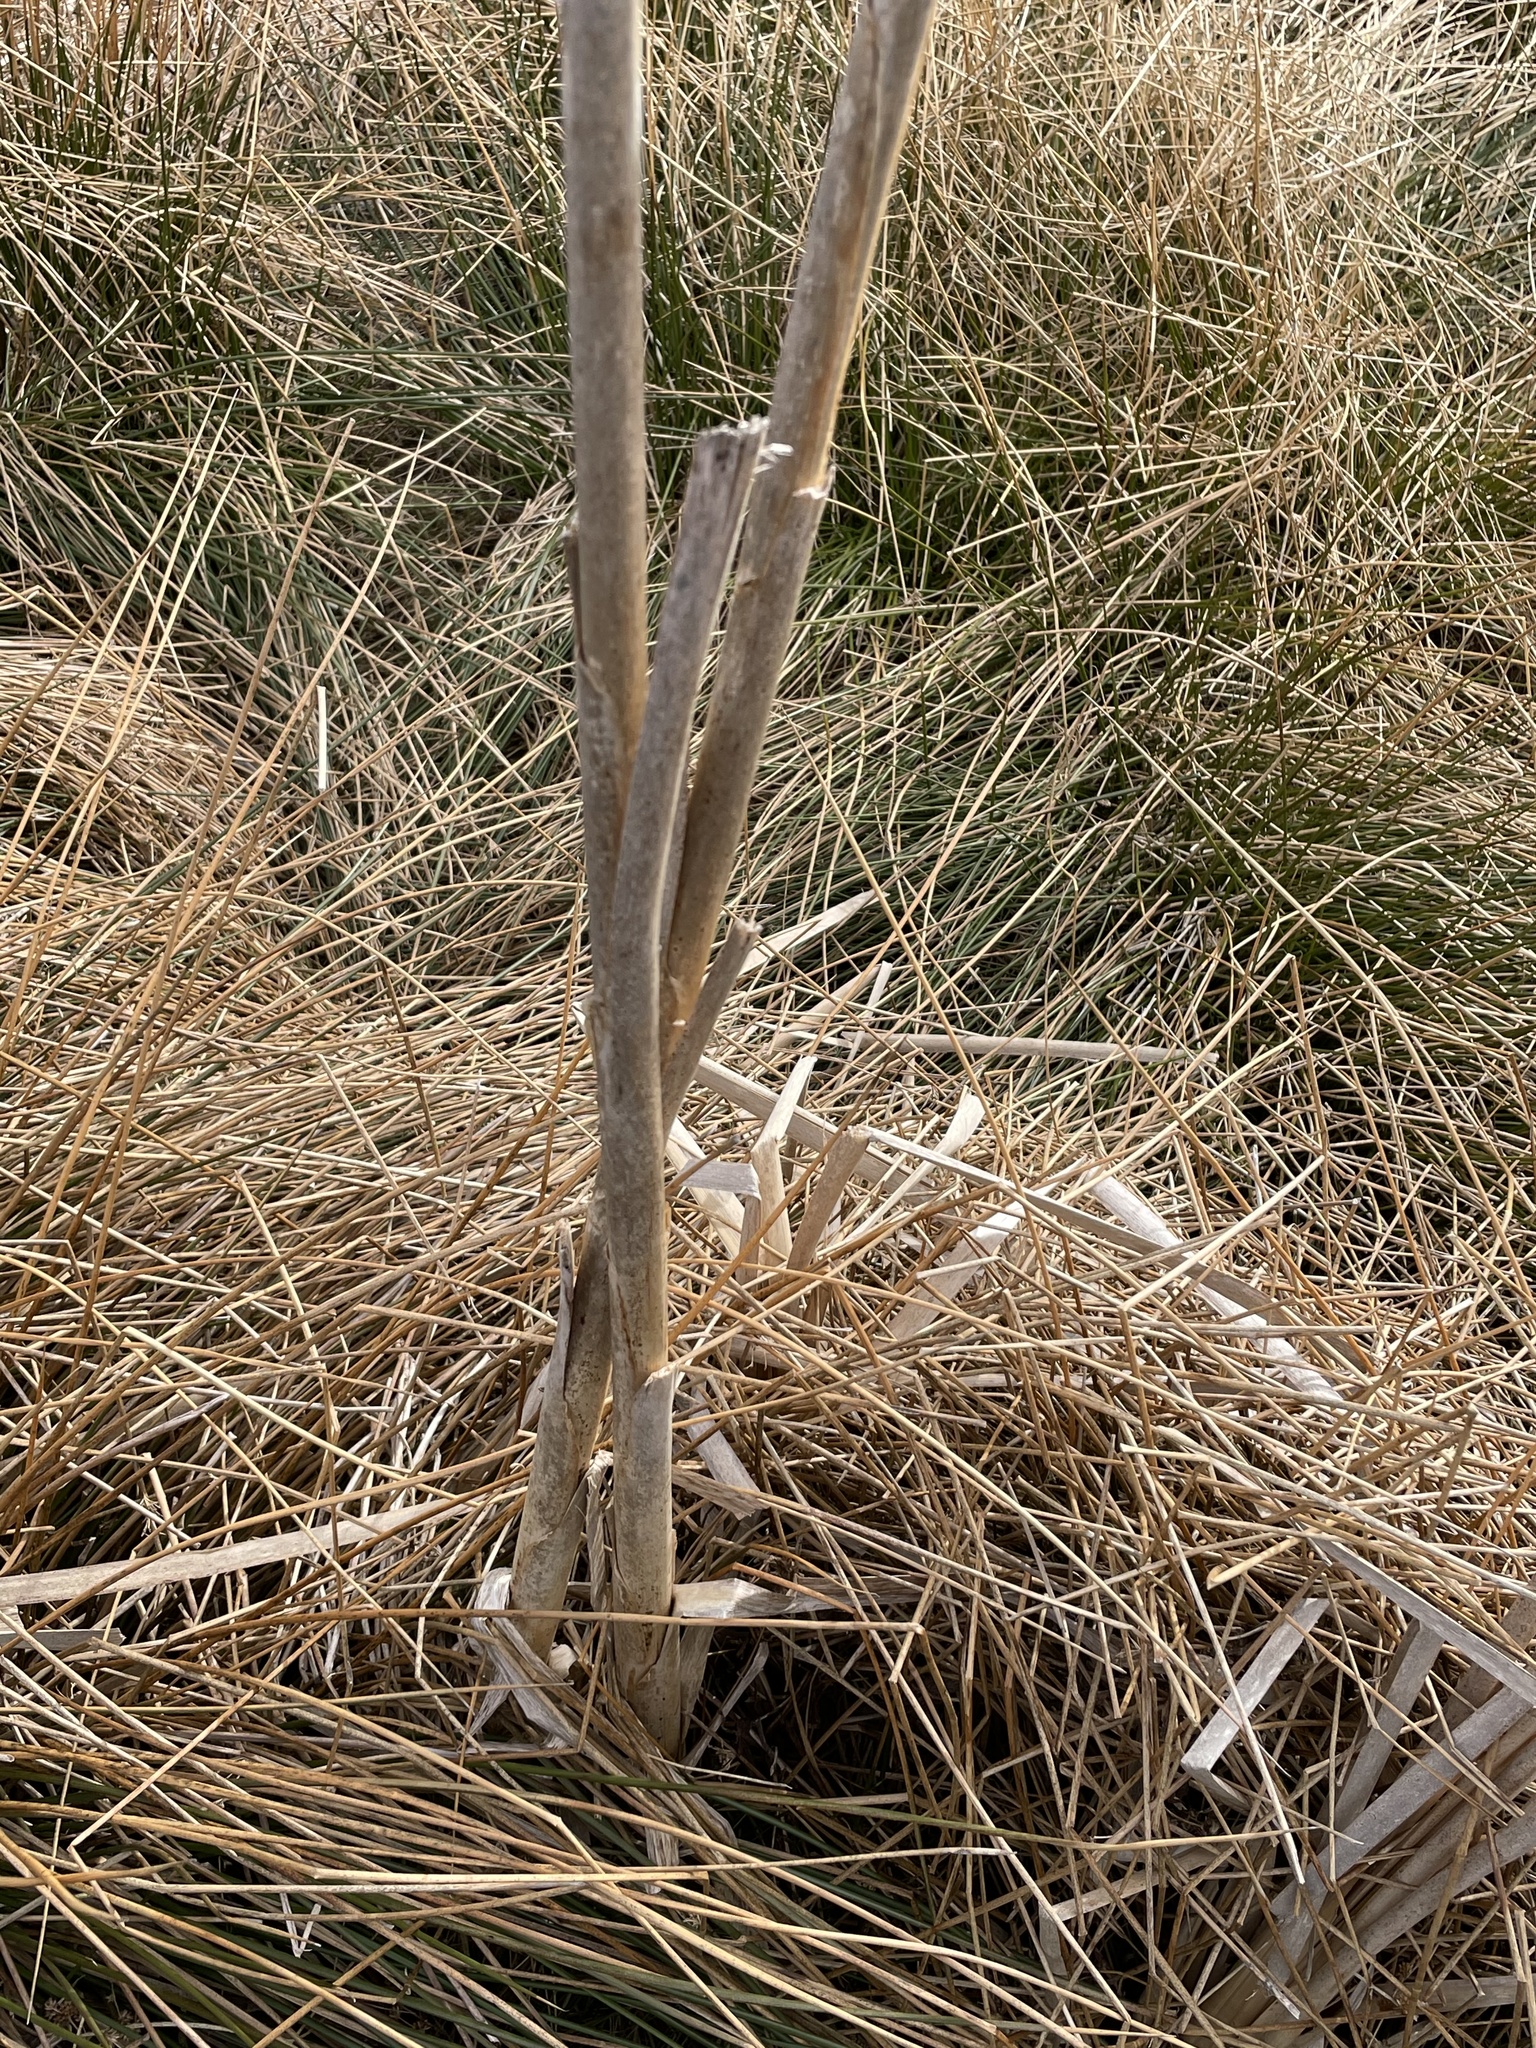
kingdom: Plantae
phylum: Tracheophyta
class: Liliopsida
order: Poales
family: Typhaceae
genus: Typha
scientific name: Typha latifolia
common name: Broadleaf cattail
